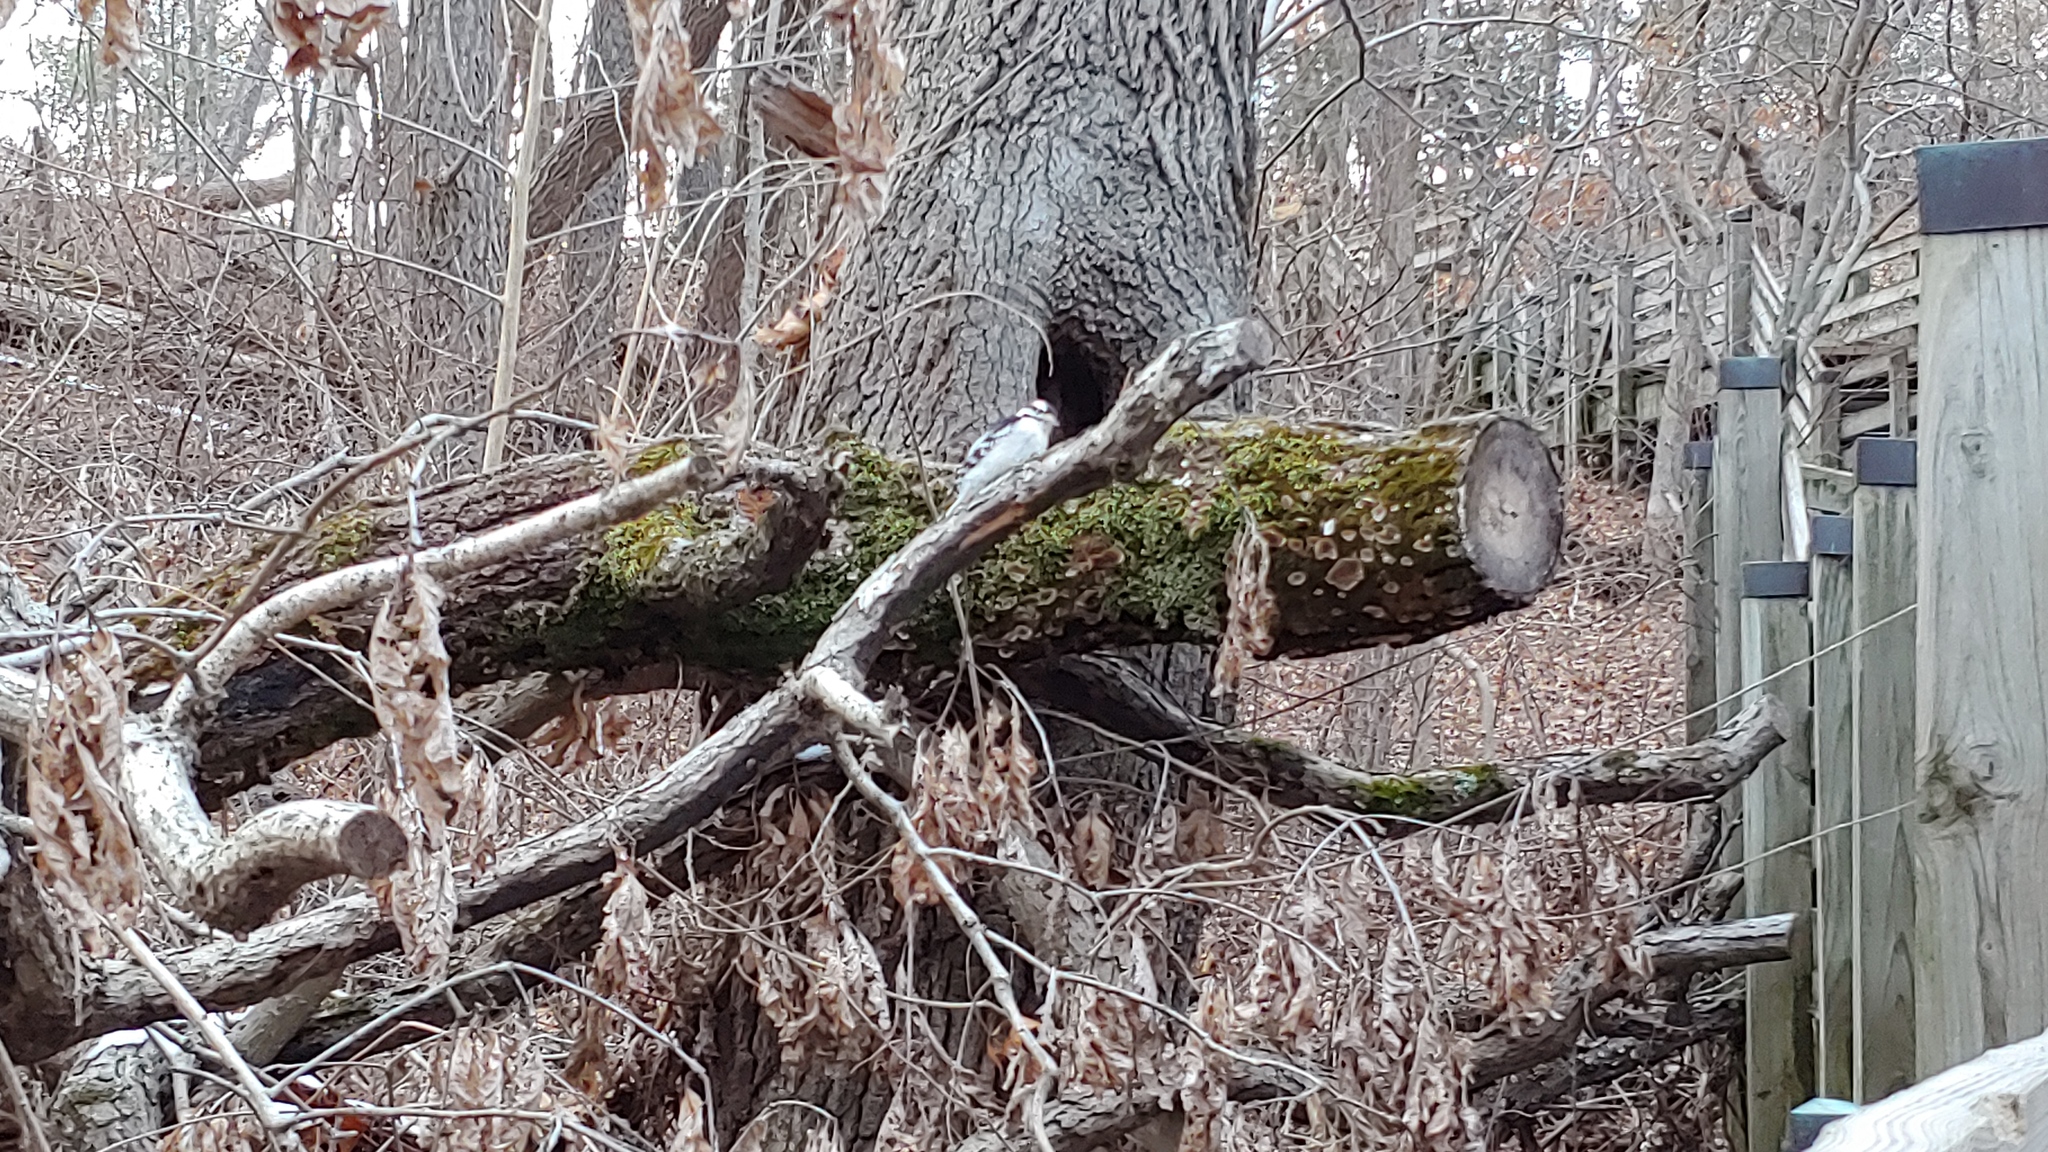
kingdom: Animalia
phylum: Chordata
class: Aves
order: Piciformes
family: Picidae
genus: Dryobates
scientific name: Dryobates pubescens
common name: Downy woodpecker
